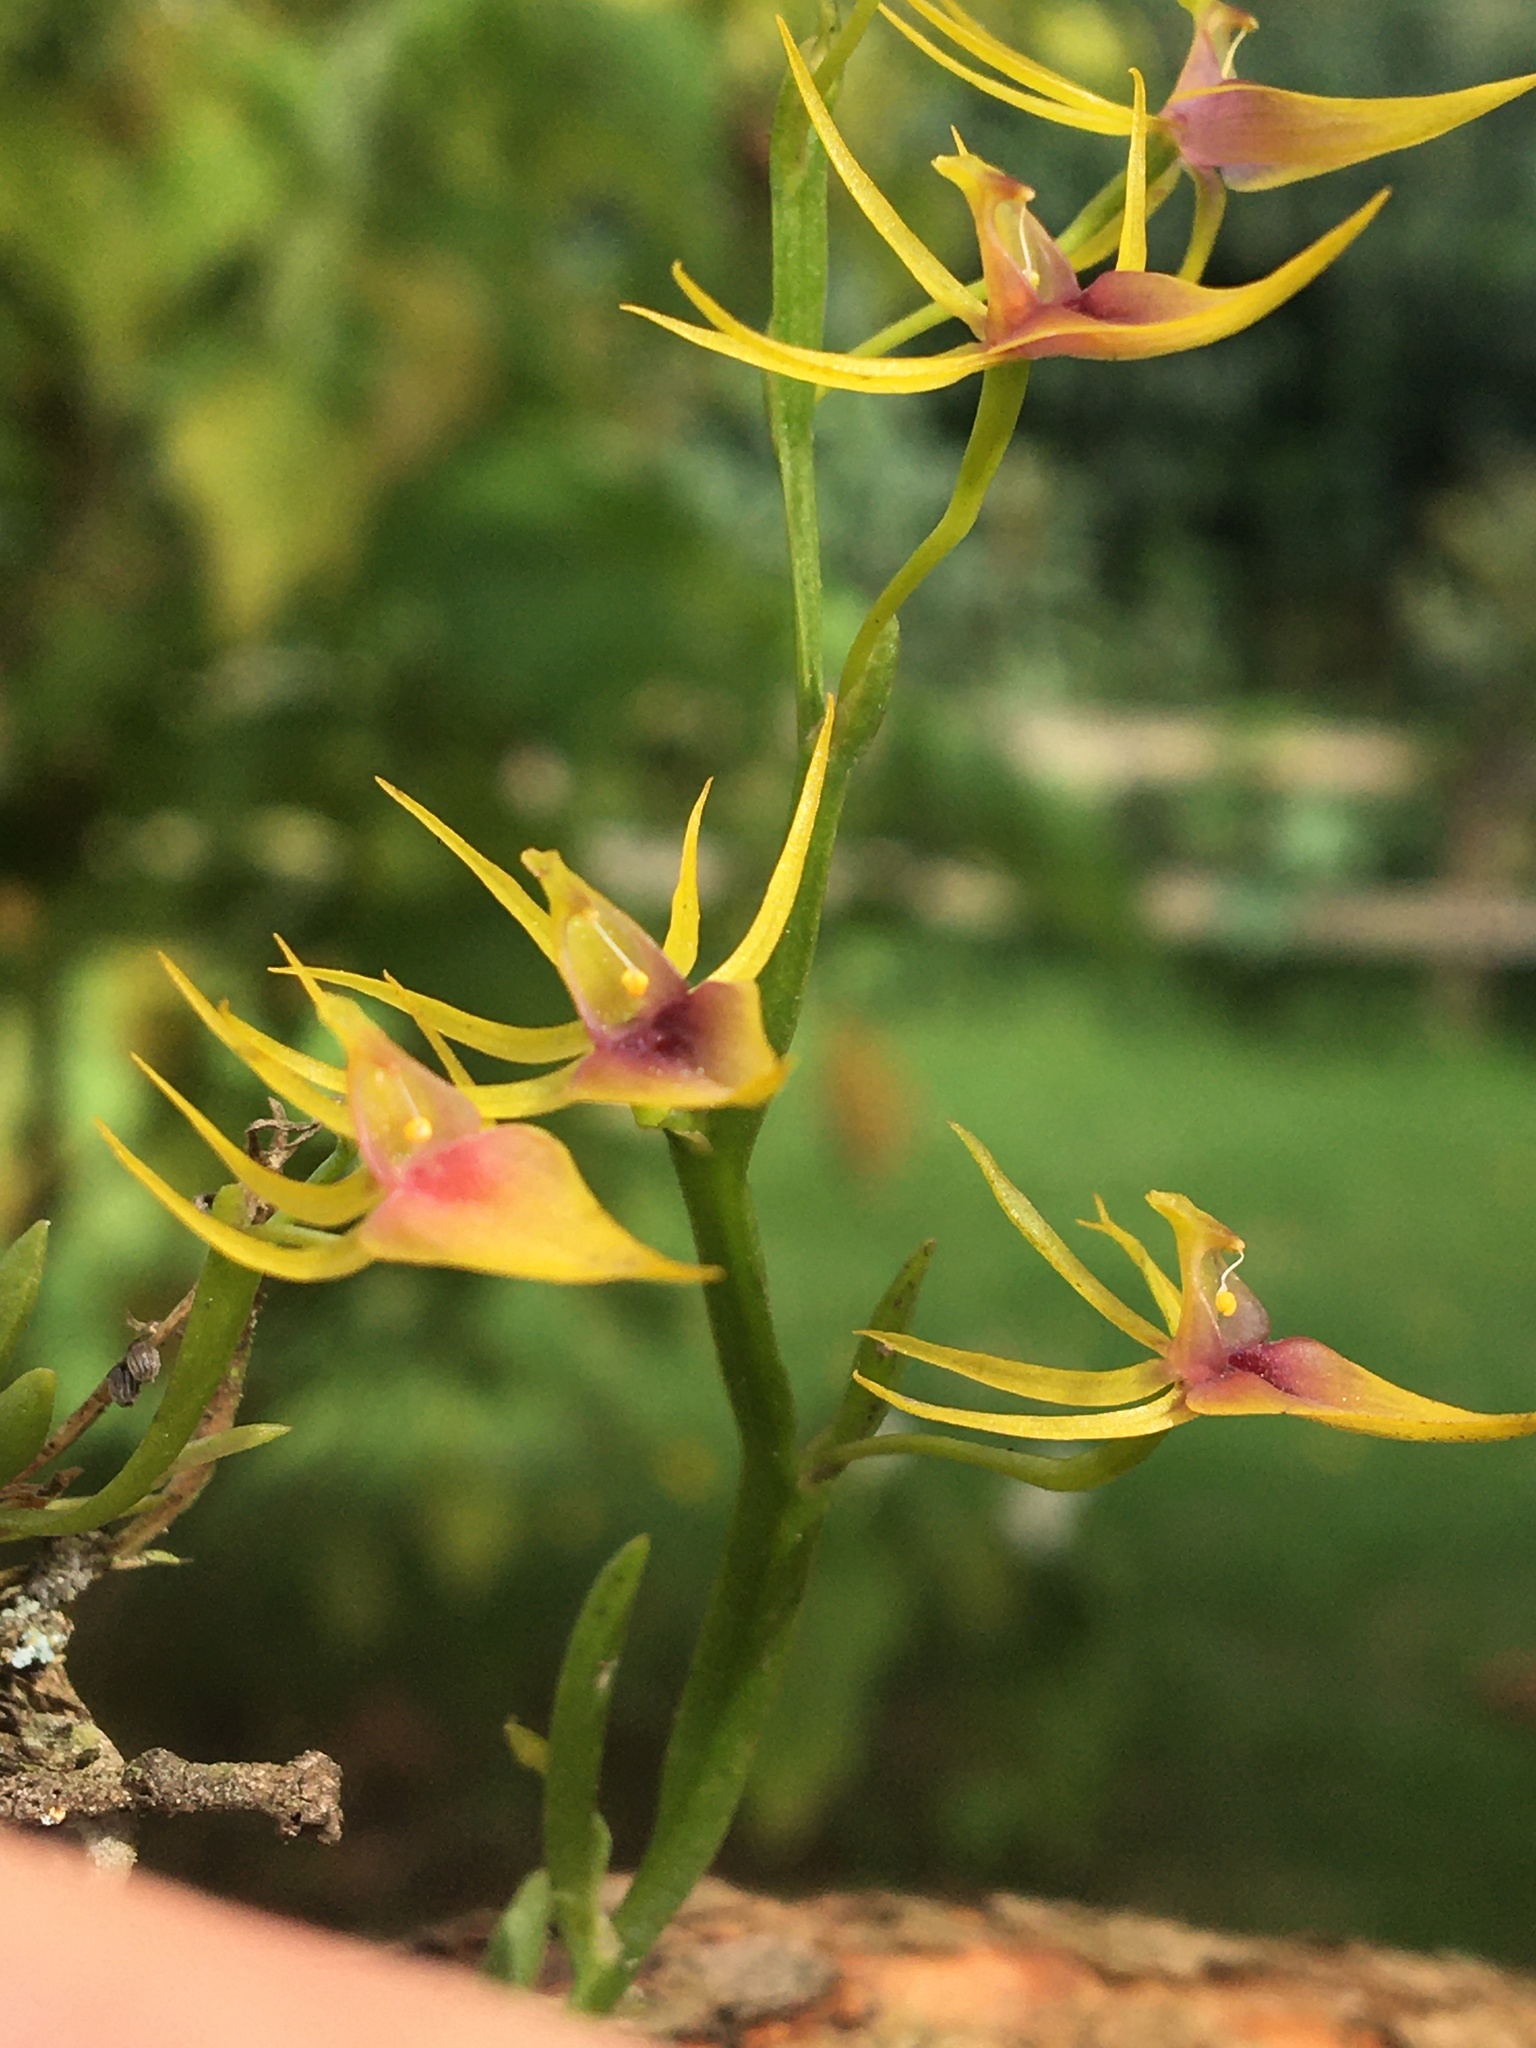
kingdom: Plantae
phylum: Tracheophyta
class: Liliopsida
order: Asparagales
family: Orchidaceae
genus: Hofmeisterella
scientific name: Hofmeisterella eumicroscopica
